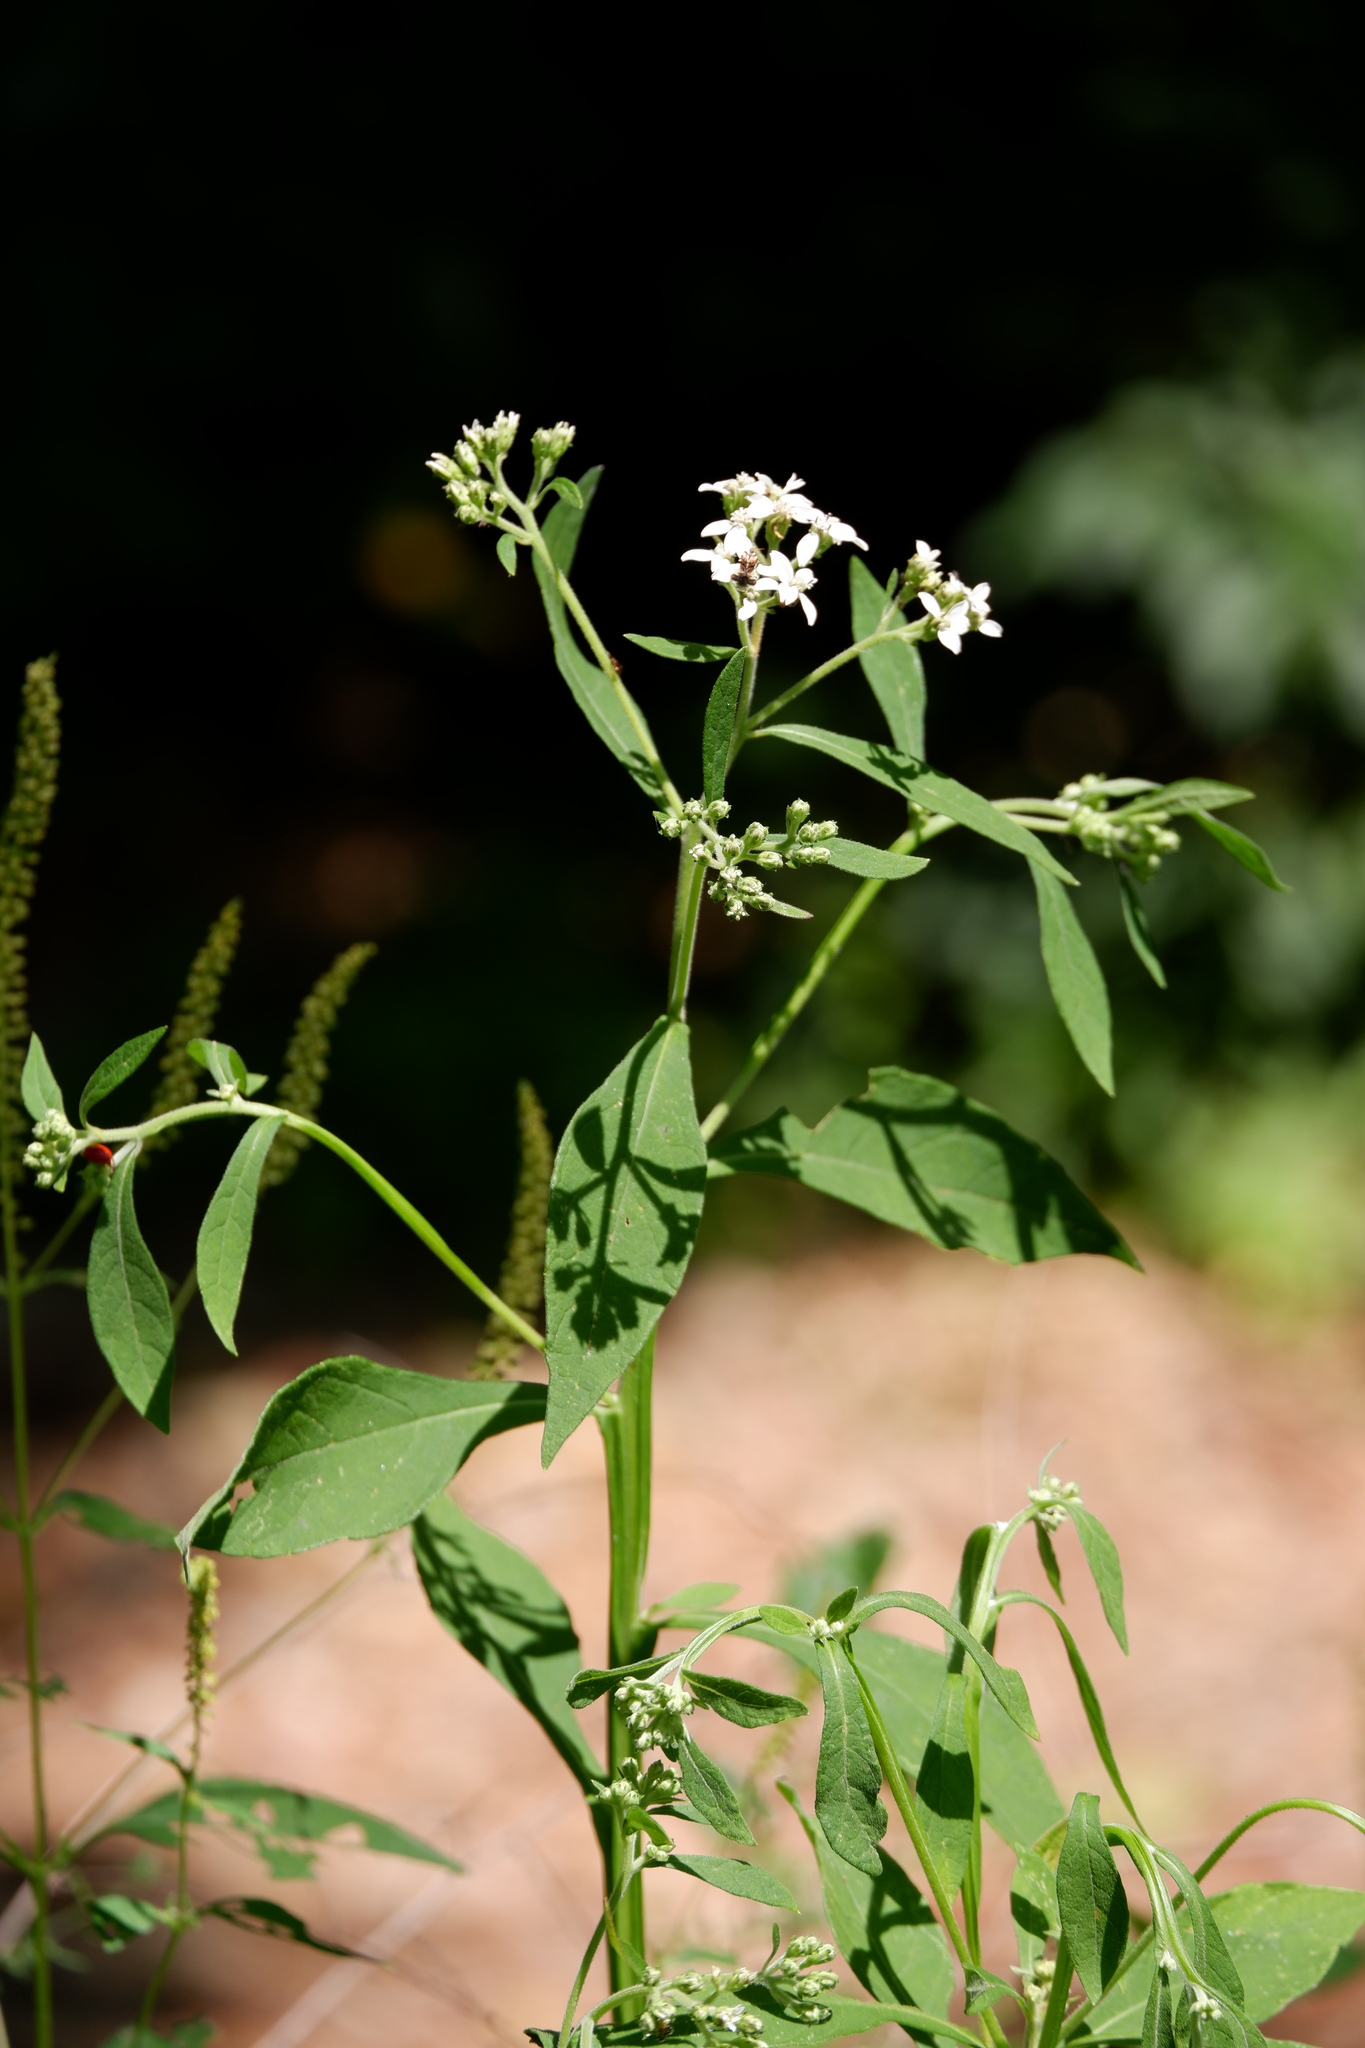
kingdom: Plantae
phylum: Tracheophyta
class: Magnoliopsida
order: Asterales
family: Asteraceae
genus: Verbesina
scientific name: Verbesina virginica
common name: Frostweed
